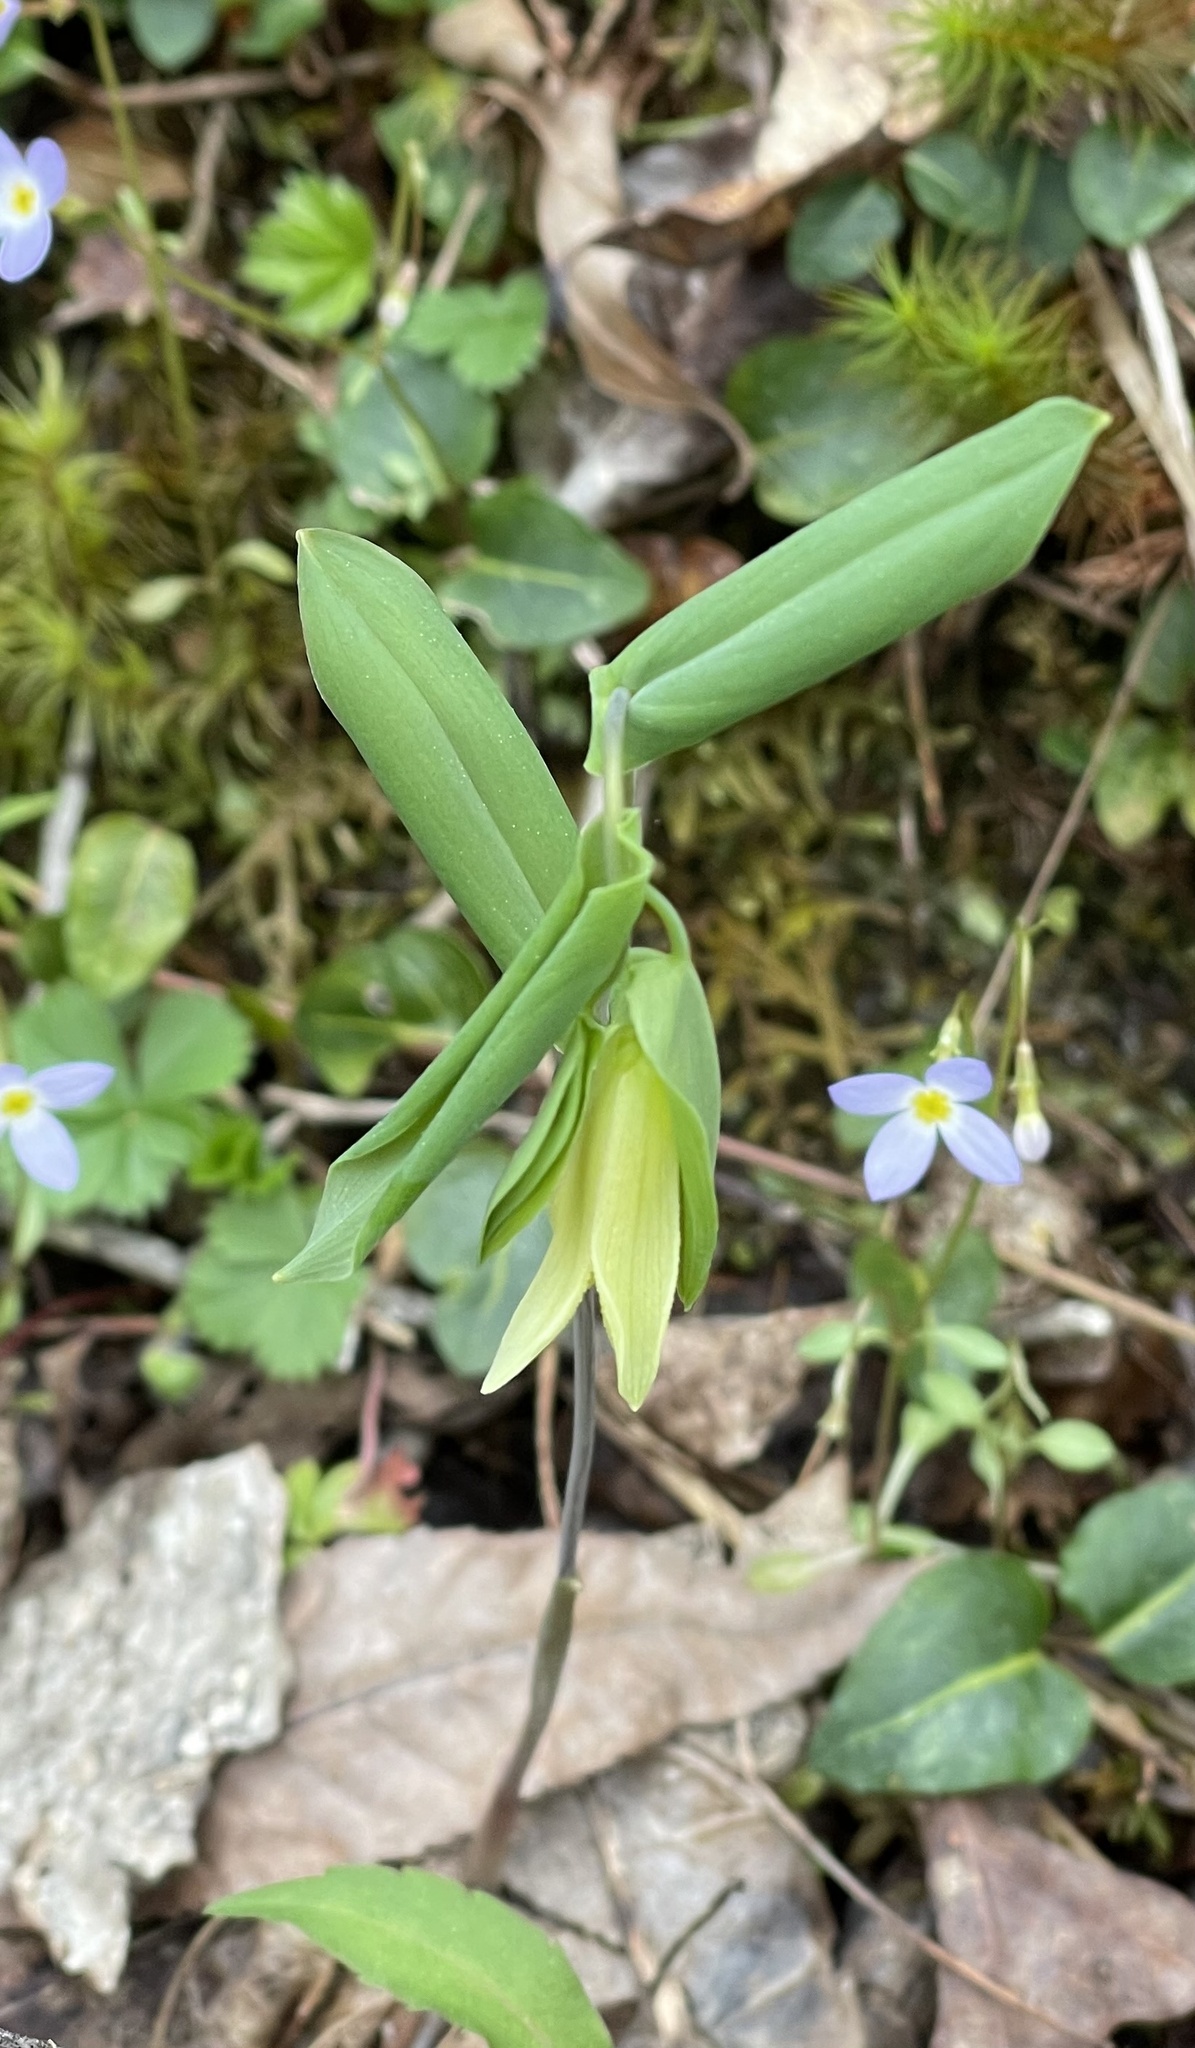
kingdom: Plantae
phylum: Tracheophyta
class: Liliopsida
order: Liliales
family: Colchicaceae
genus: Uvularia
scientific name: Uvularia perfoliata
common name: Perfoliate bellwort
